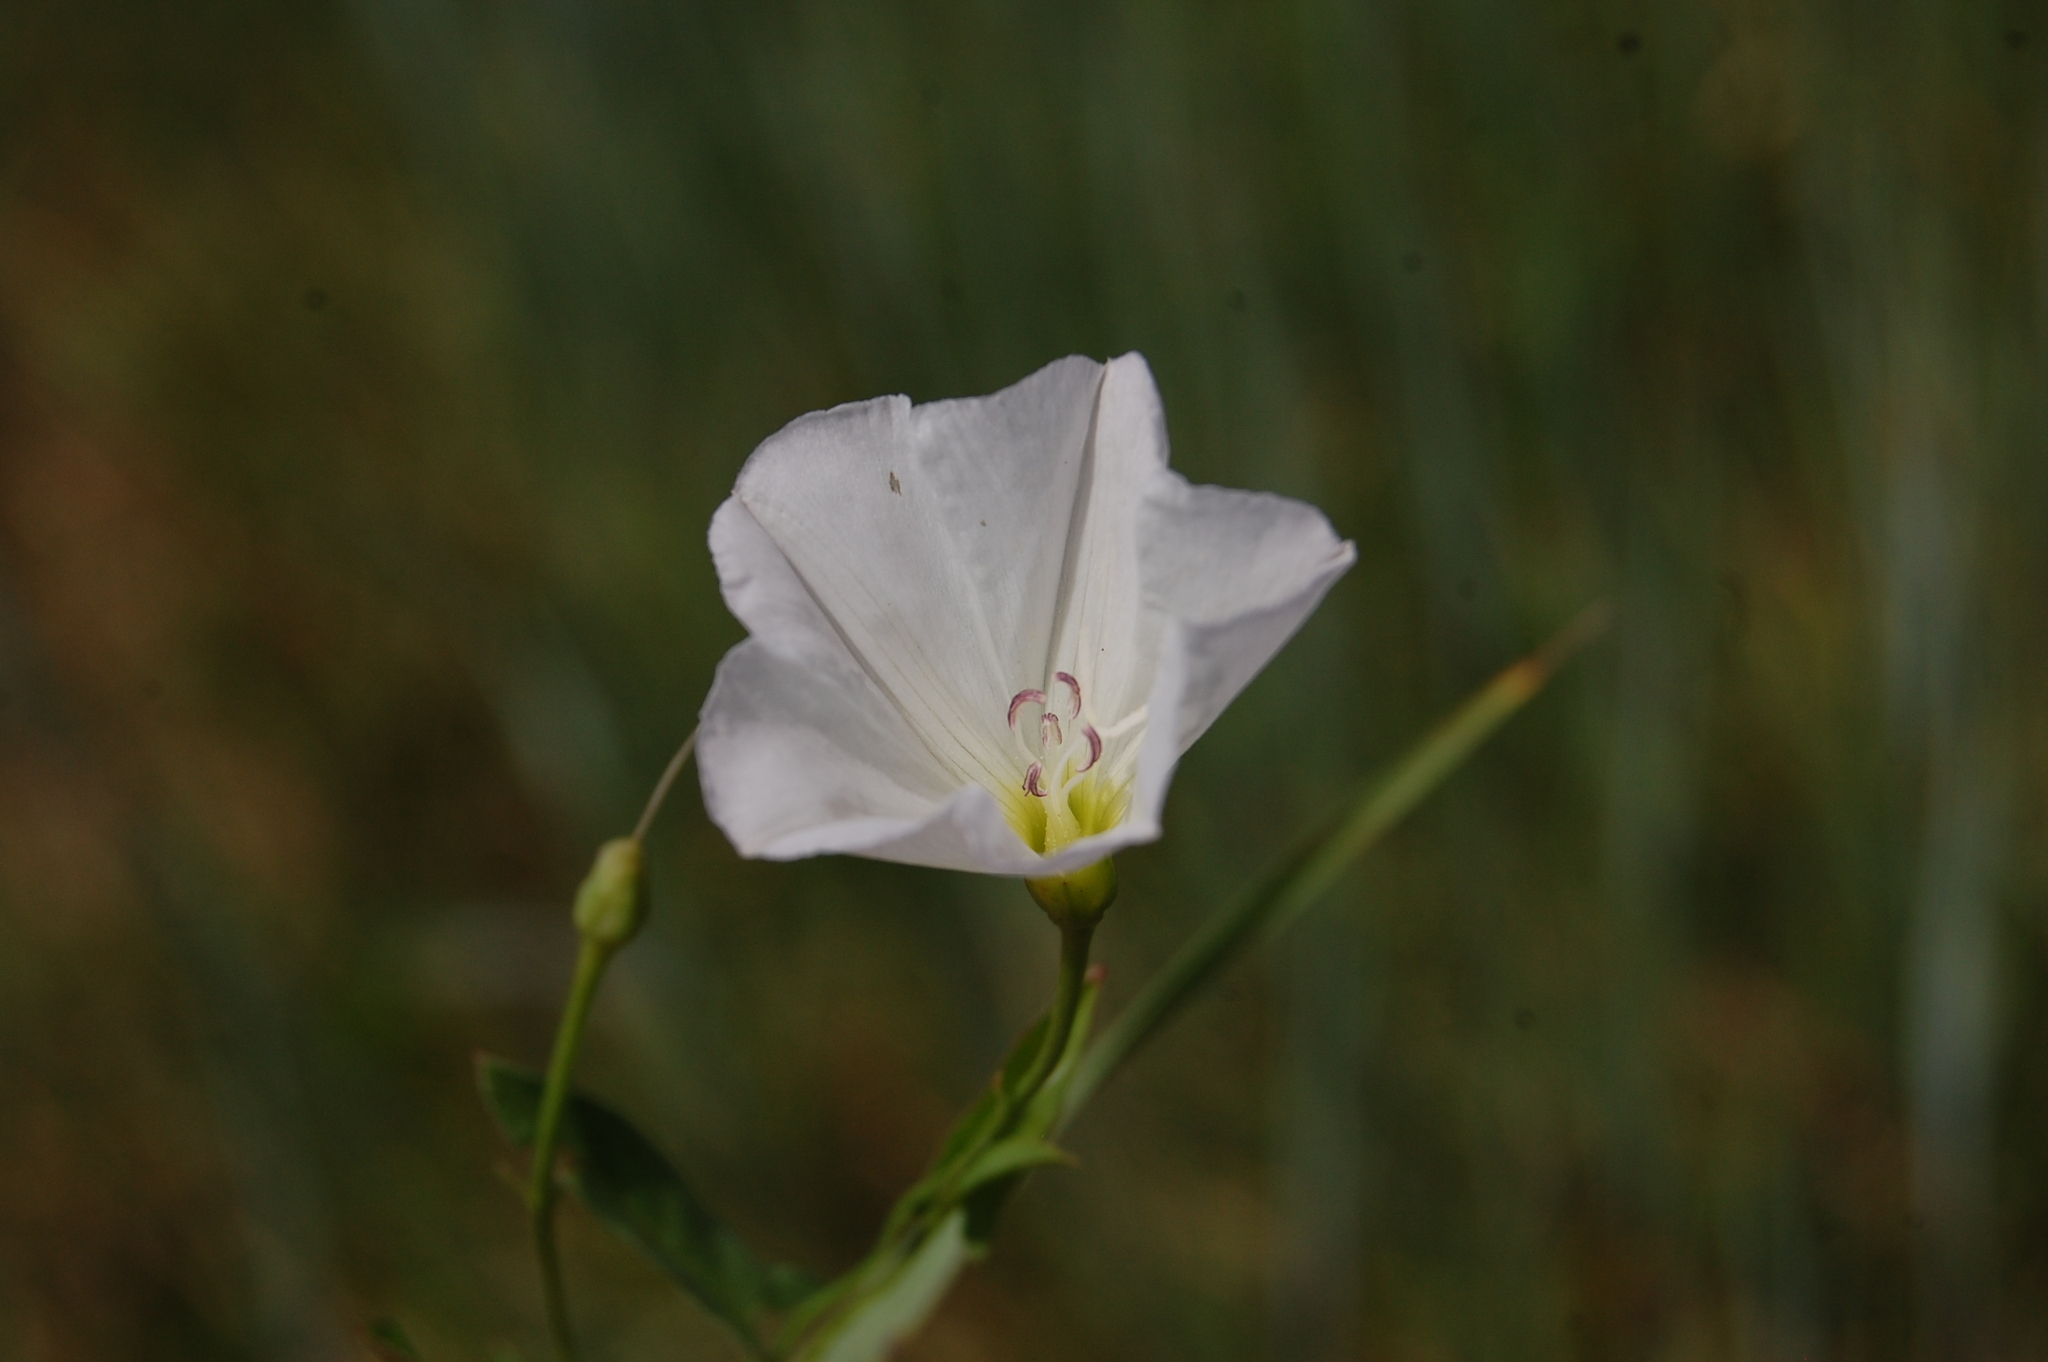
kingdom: Plantae
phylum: Tracheophyta
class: Magnoliopsida
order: Solanales
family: Convolvulaceae
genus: Convolvulus
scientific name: Convolvulus arvensis
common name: Field bindweed
